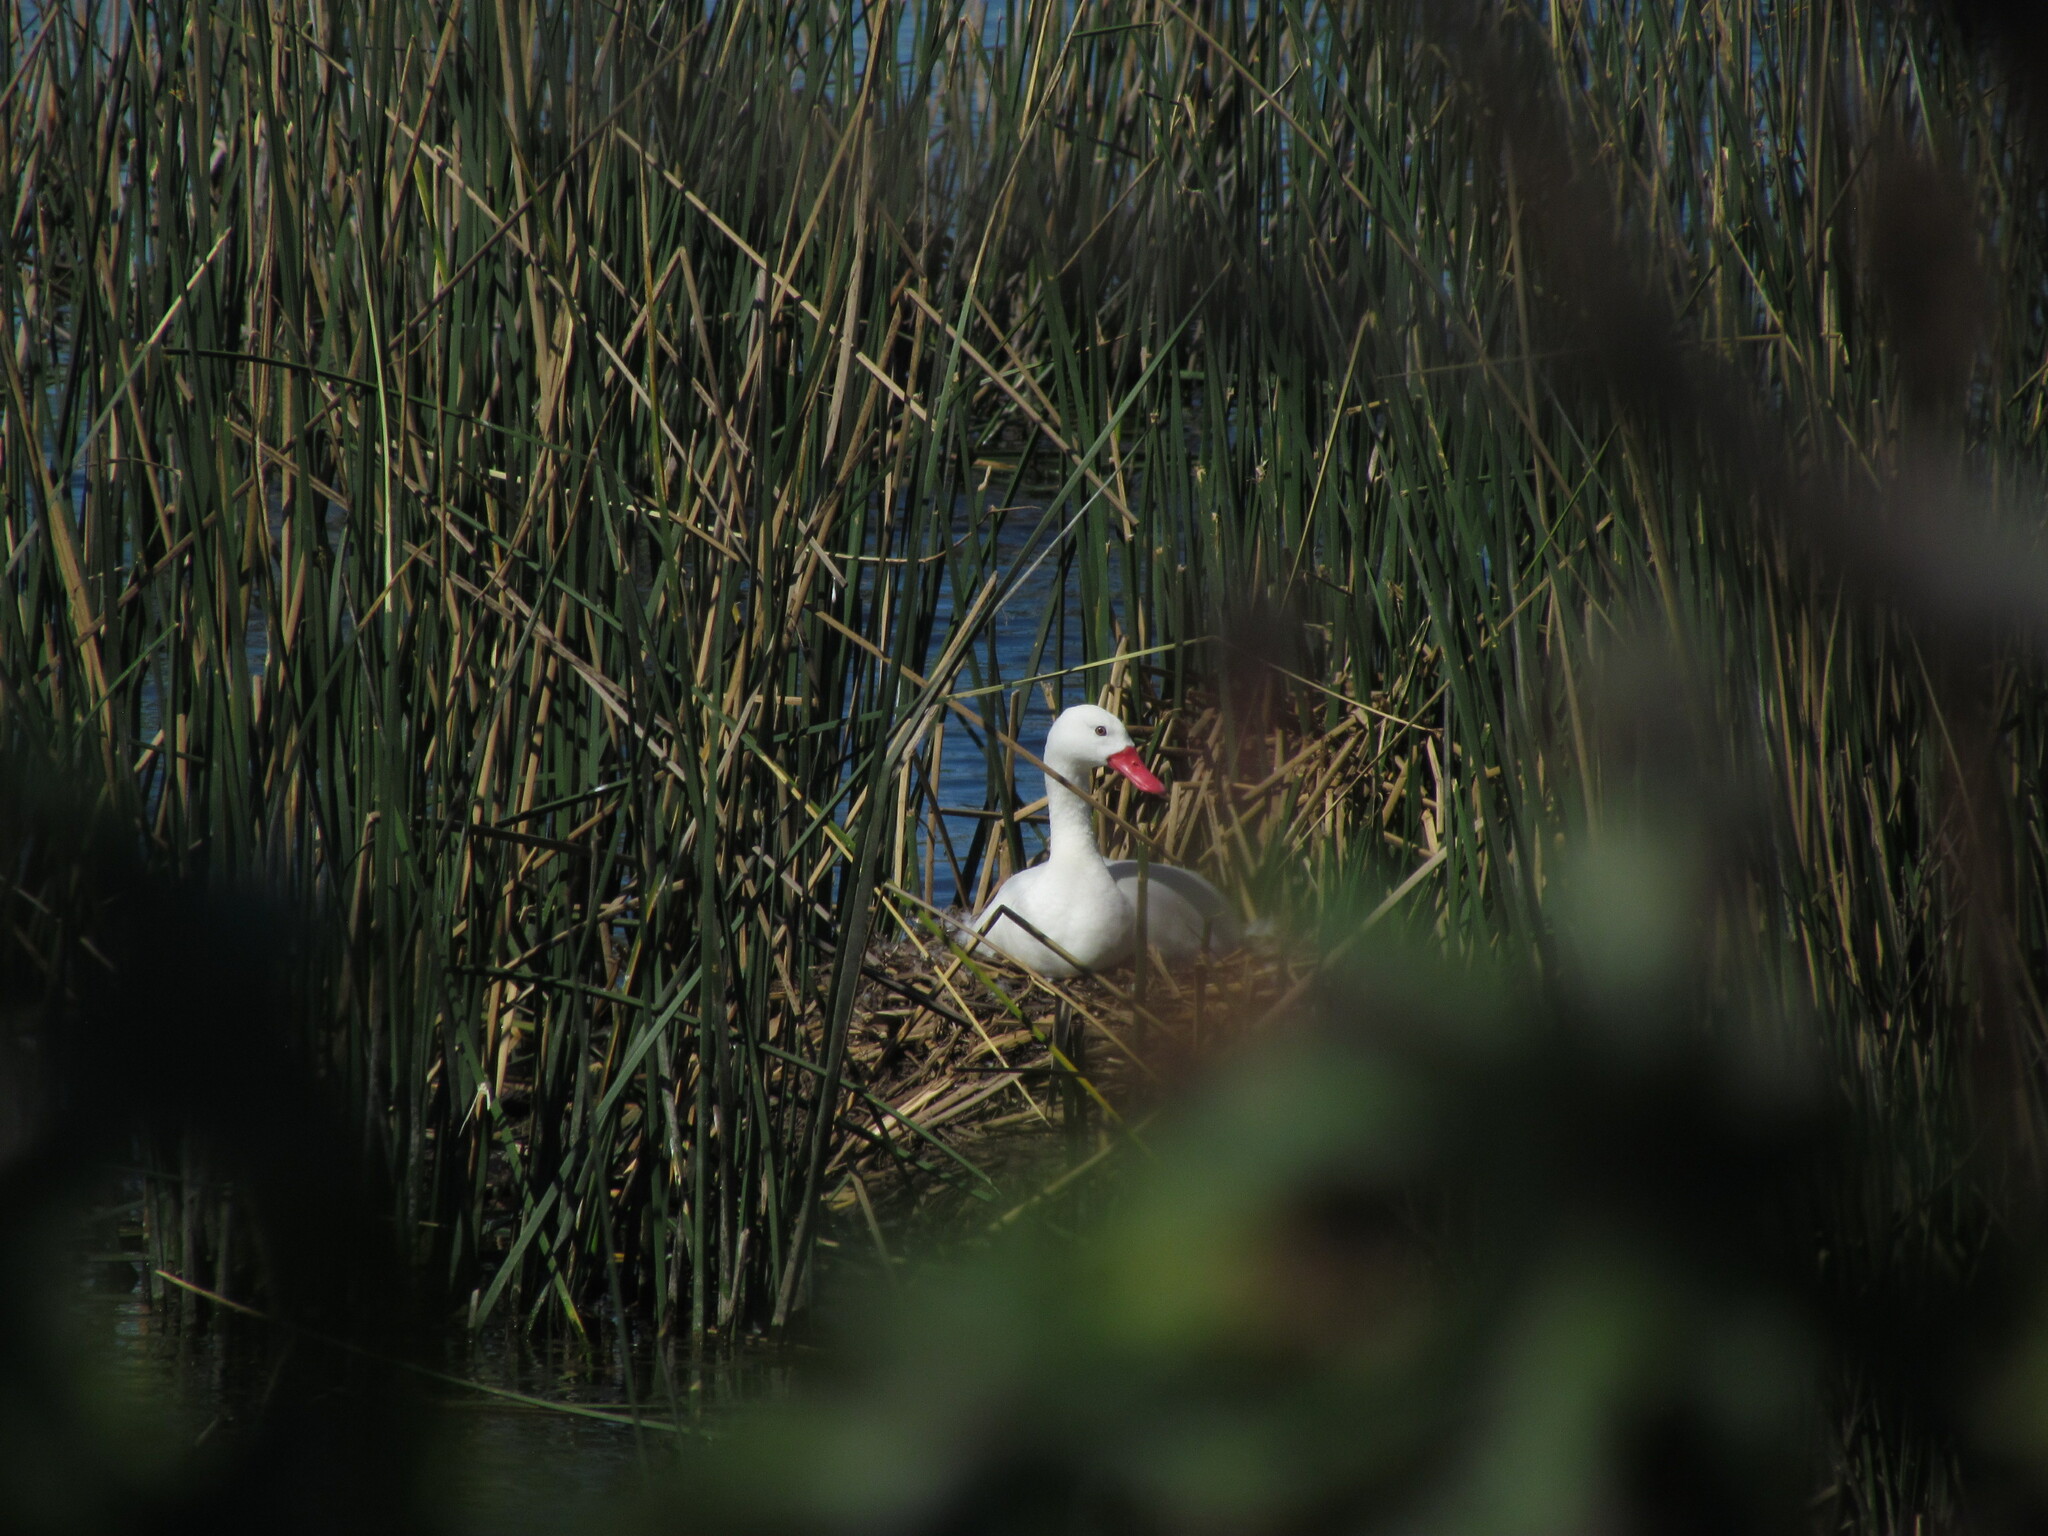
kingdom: Animalia
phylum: Chordata
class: Aves
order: Anseriformes
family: Anatidae
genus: Coscoroba
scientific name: Coscoroba coscoroba
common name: Coscoroba swan
